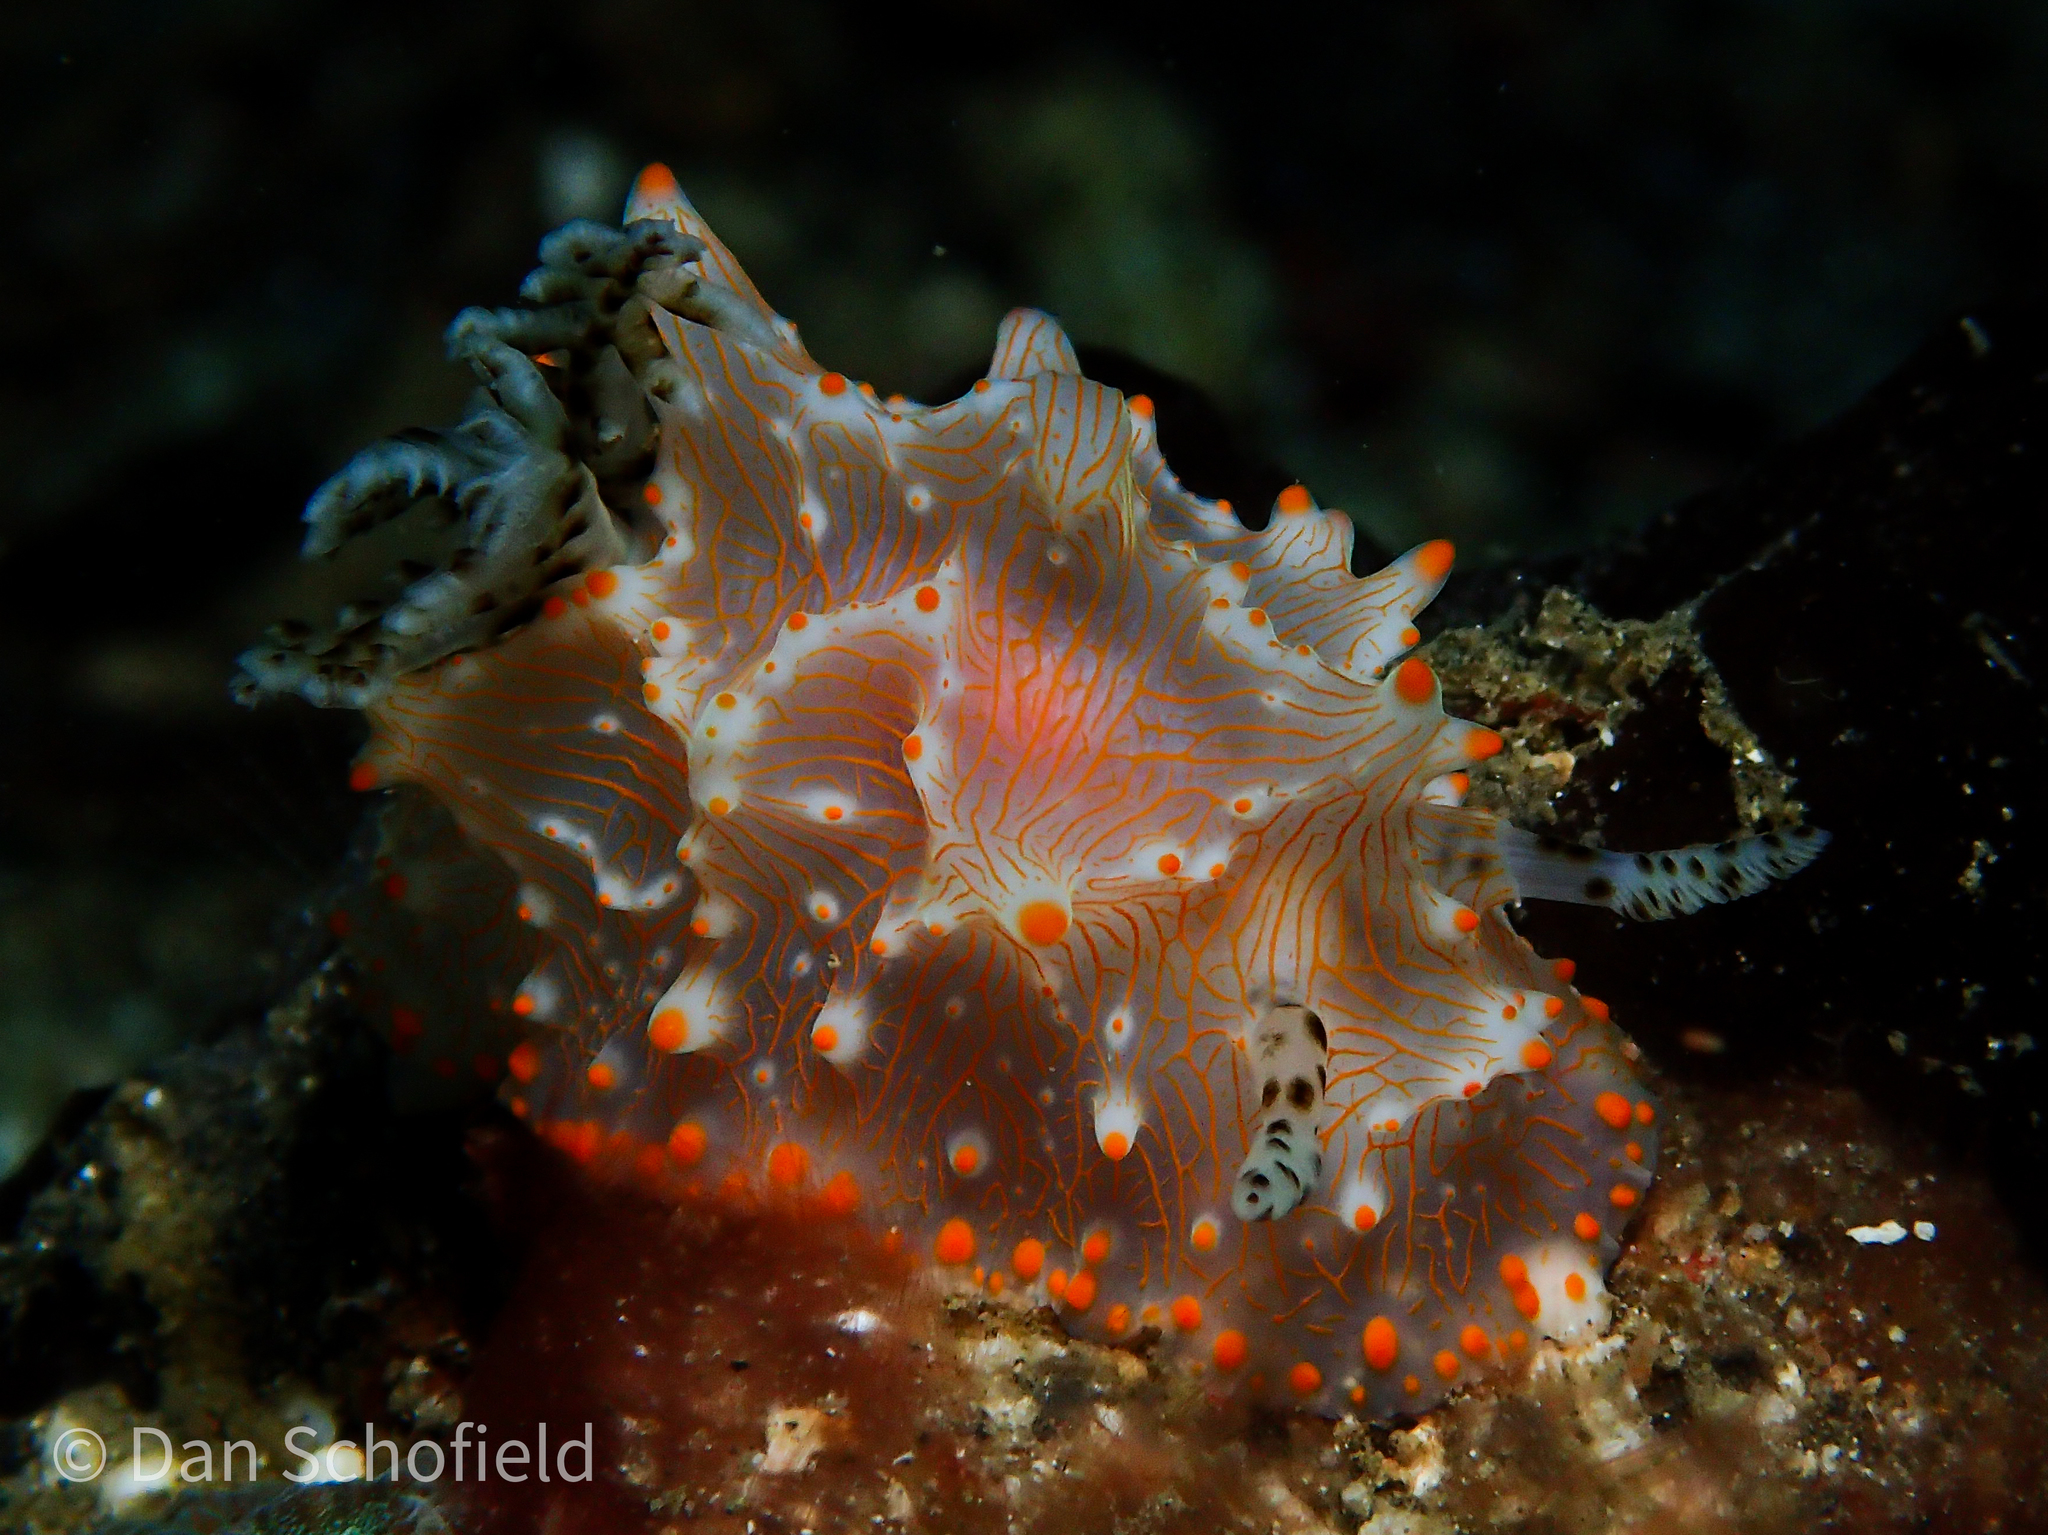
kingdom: Animalia
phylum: Mollusca
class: Gastropoda
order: Nudibranchia
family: Discodorididae
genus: Halgerda
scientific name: Halgerda batangas
